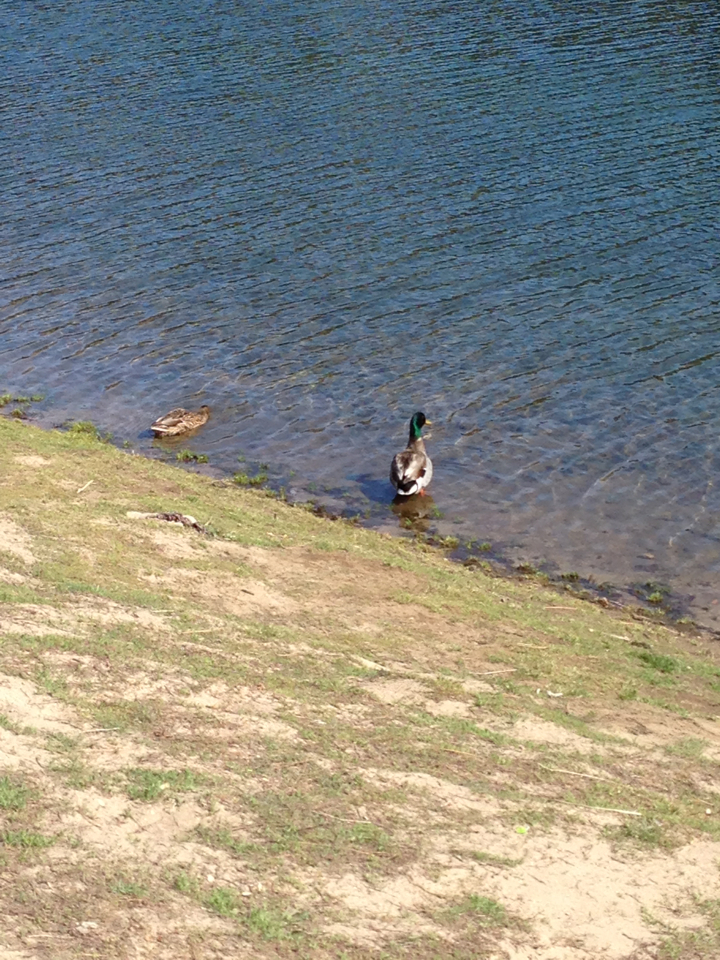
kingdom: Animalia
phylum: Chordata
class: Aves
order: Anseriformes
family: Anatidae
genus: Anas
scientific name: Anas platyrhynchos
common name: Mallard
